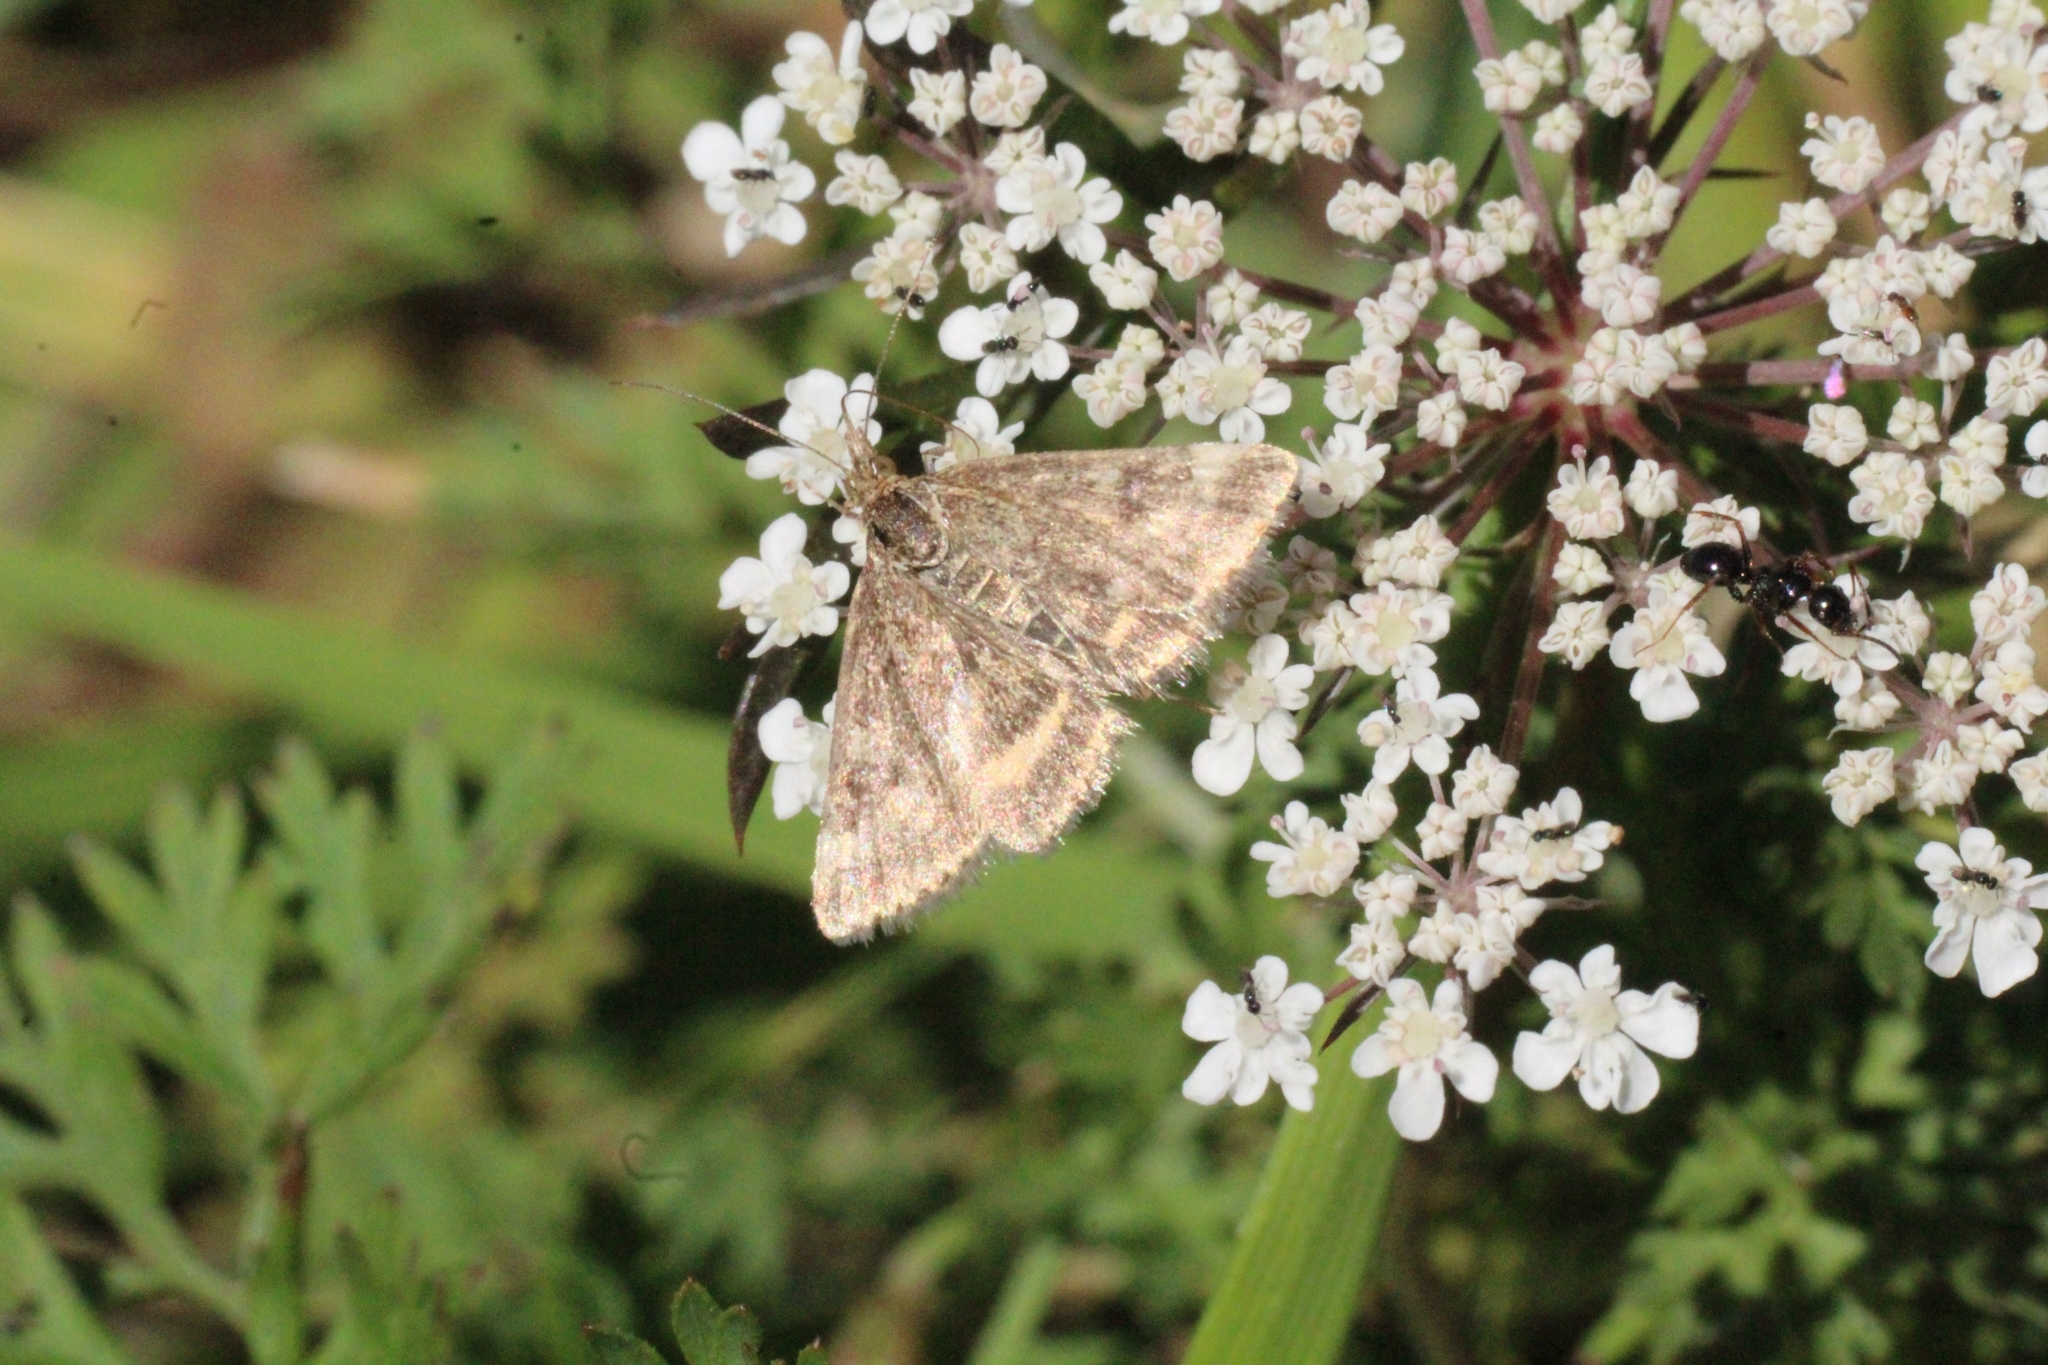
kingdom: Animalia
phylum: Arthropoda
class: Insecta
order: Lepidoptera
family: Crambidae
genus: Pyrausta
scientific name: Pyrausta despicata
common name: Straw-barred pearl
